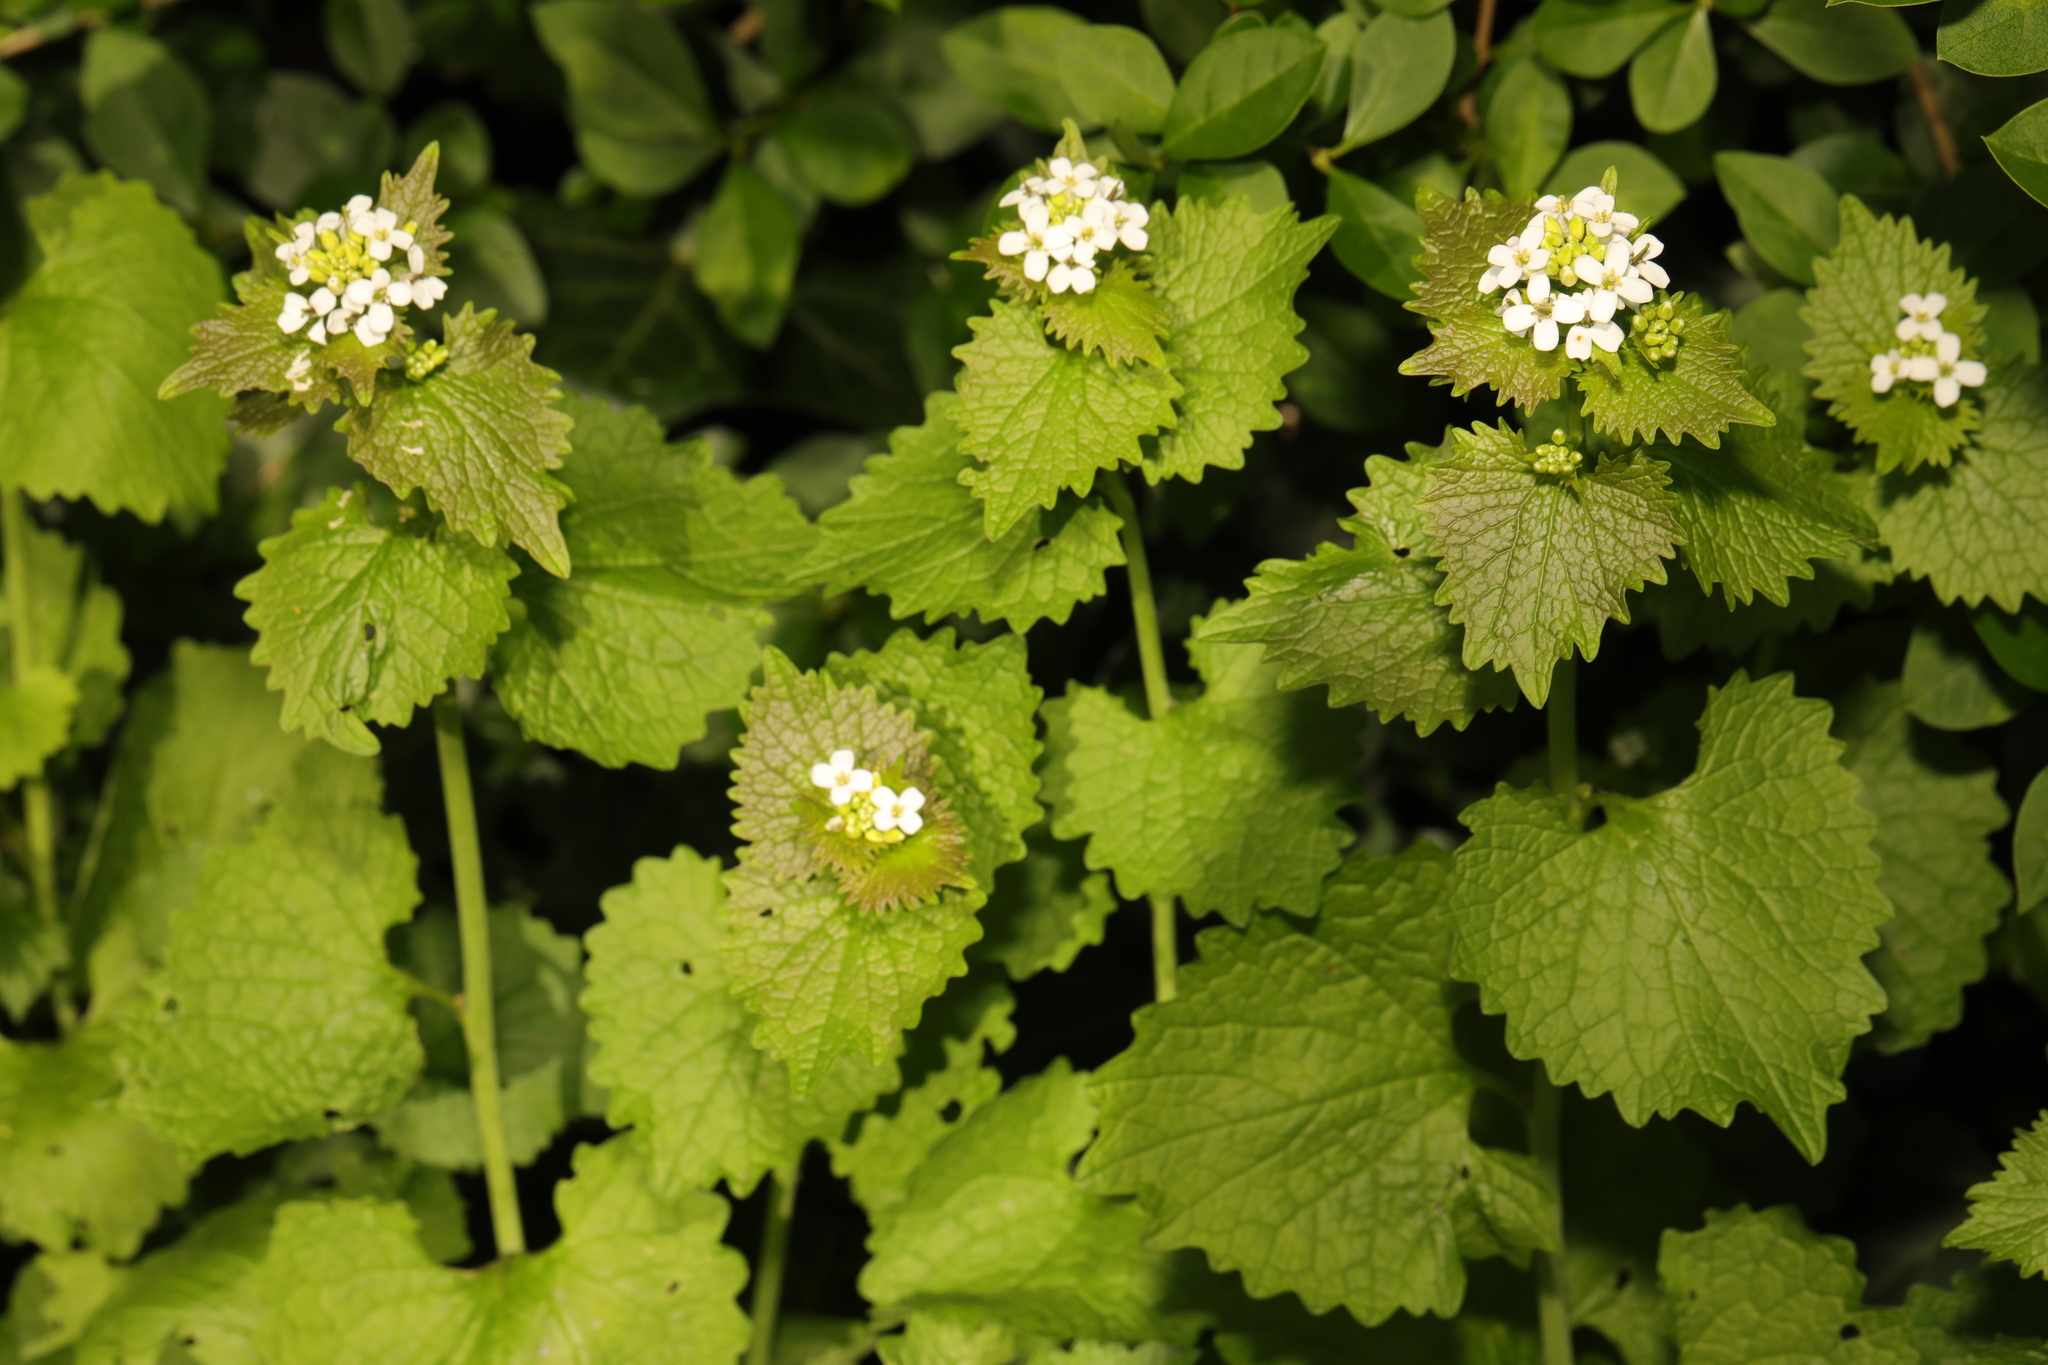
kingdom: Plantae
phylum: Tracheophyta
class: Magnoliopsida
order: Brassicales
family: Brassicaceae
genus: Alliaria
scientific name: Alliaria petiolata
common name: Garlic mustard
